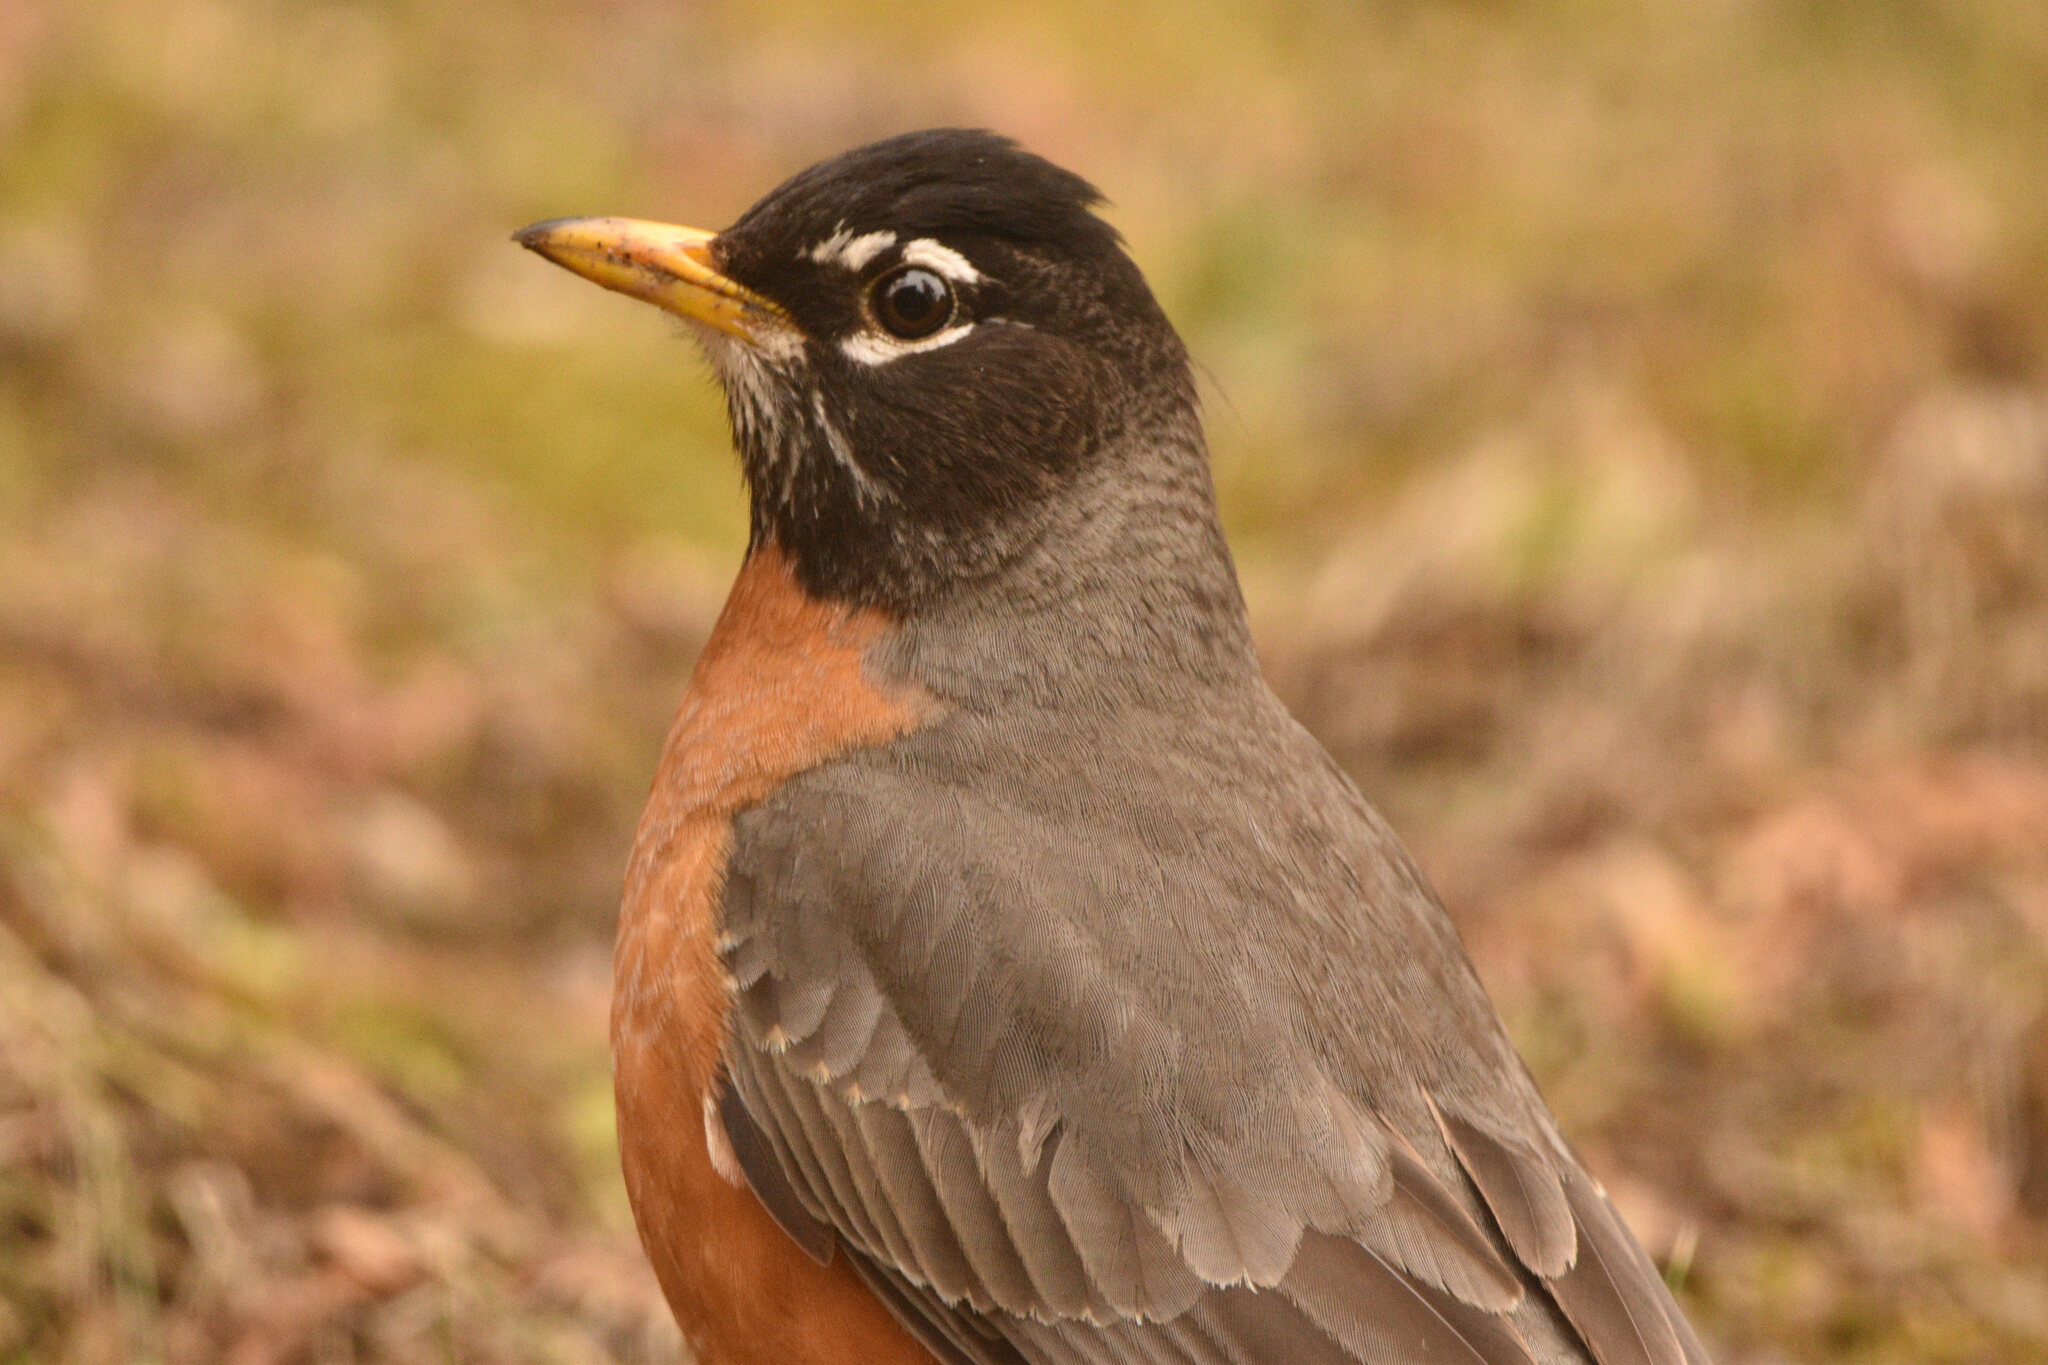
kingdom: Animalia
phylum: Chordata
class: Aves
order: Passeriformes
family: Turdidae
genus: Turdus
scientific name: Turdus migratorius
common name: American robin
